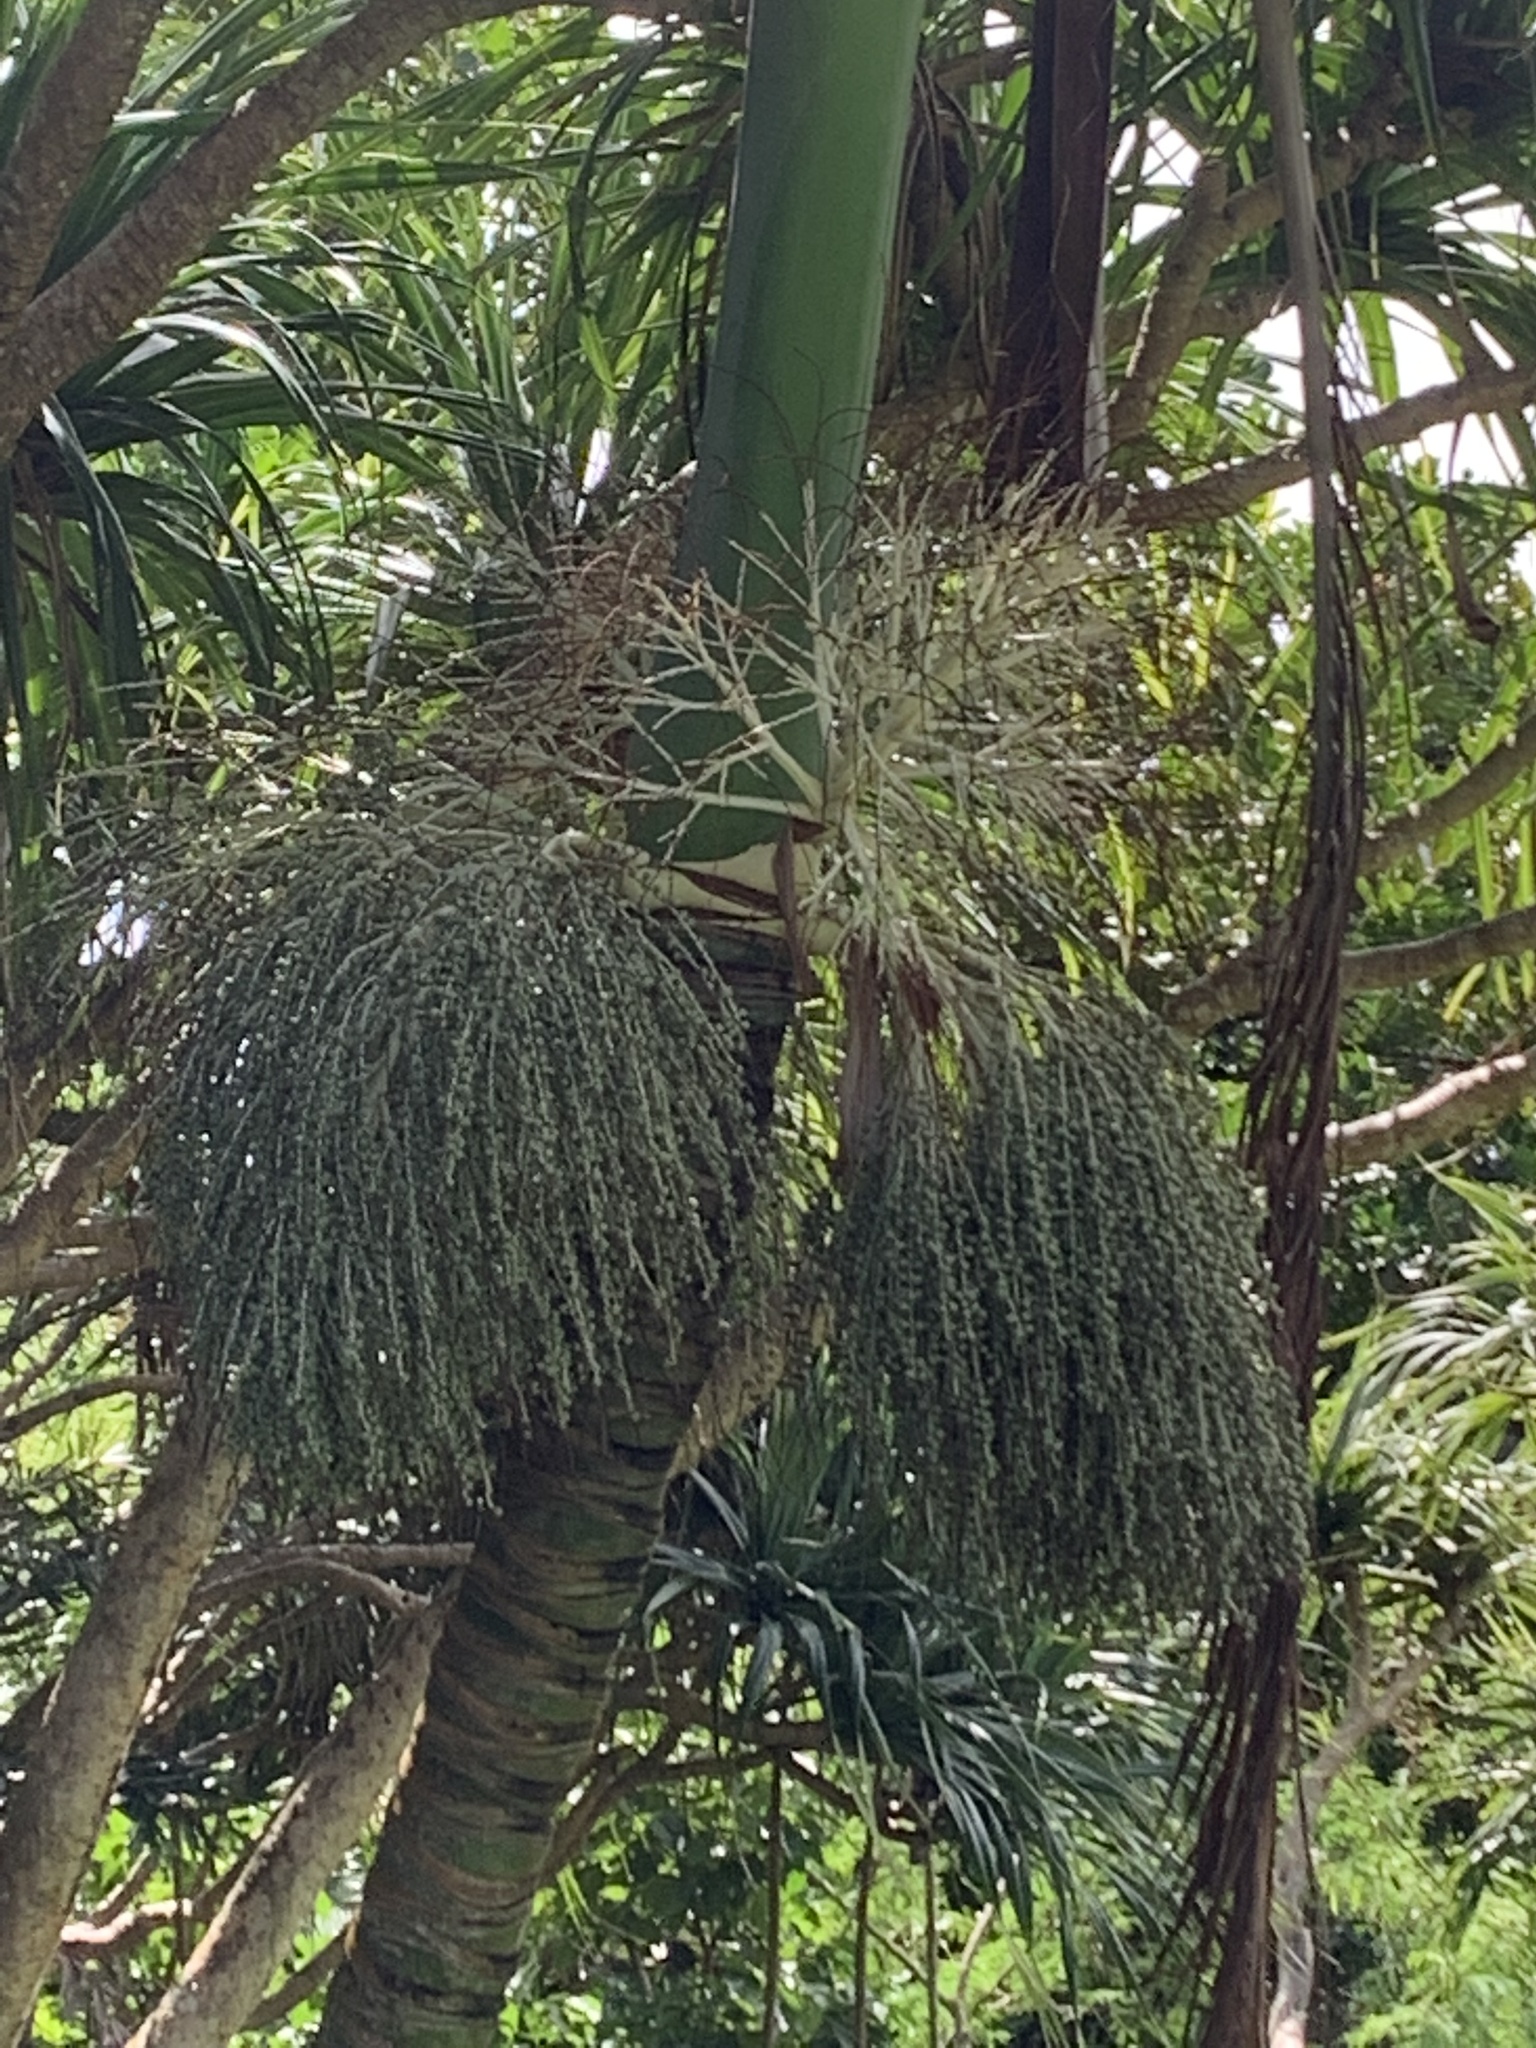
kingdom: Plantae
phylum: Tracheophyta
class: Liliopsida
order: Arecales
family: Arecaceae
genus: Clinostigma
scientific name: Clinostigma savoryanum
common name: Arrack tree
